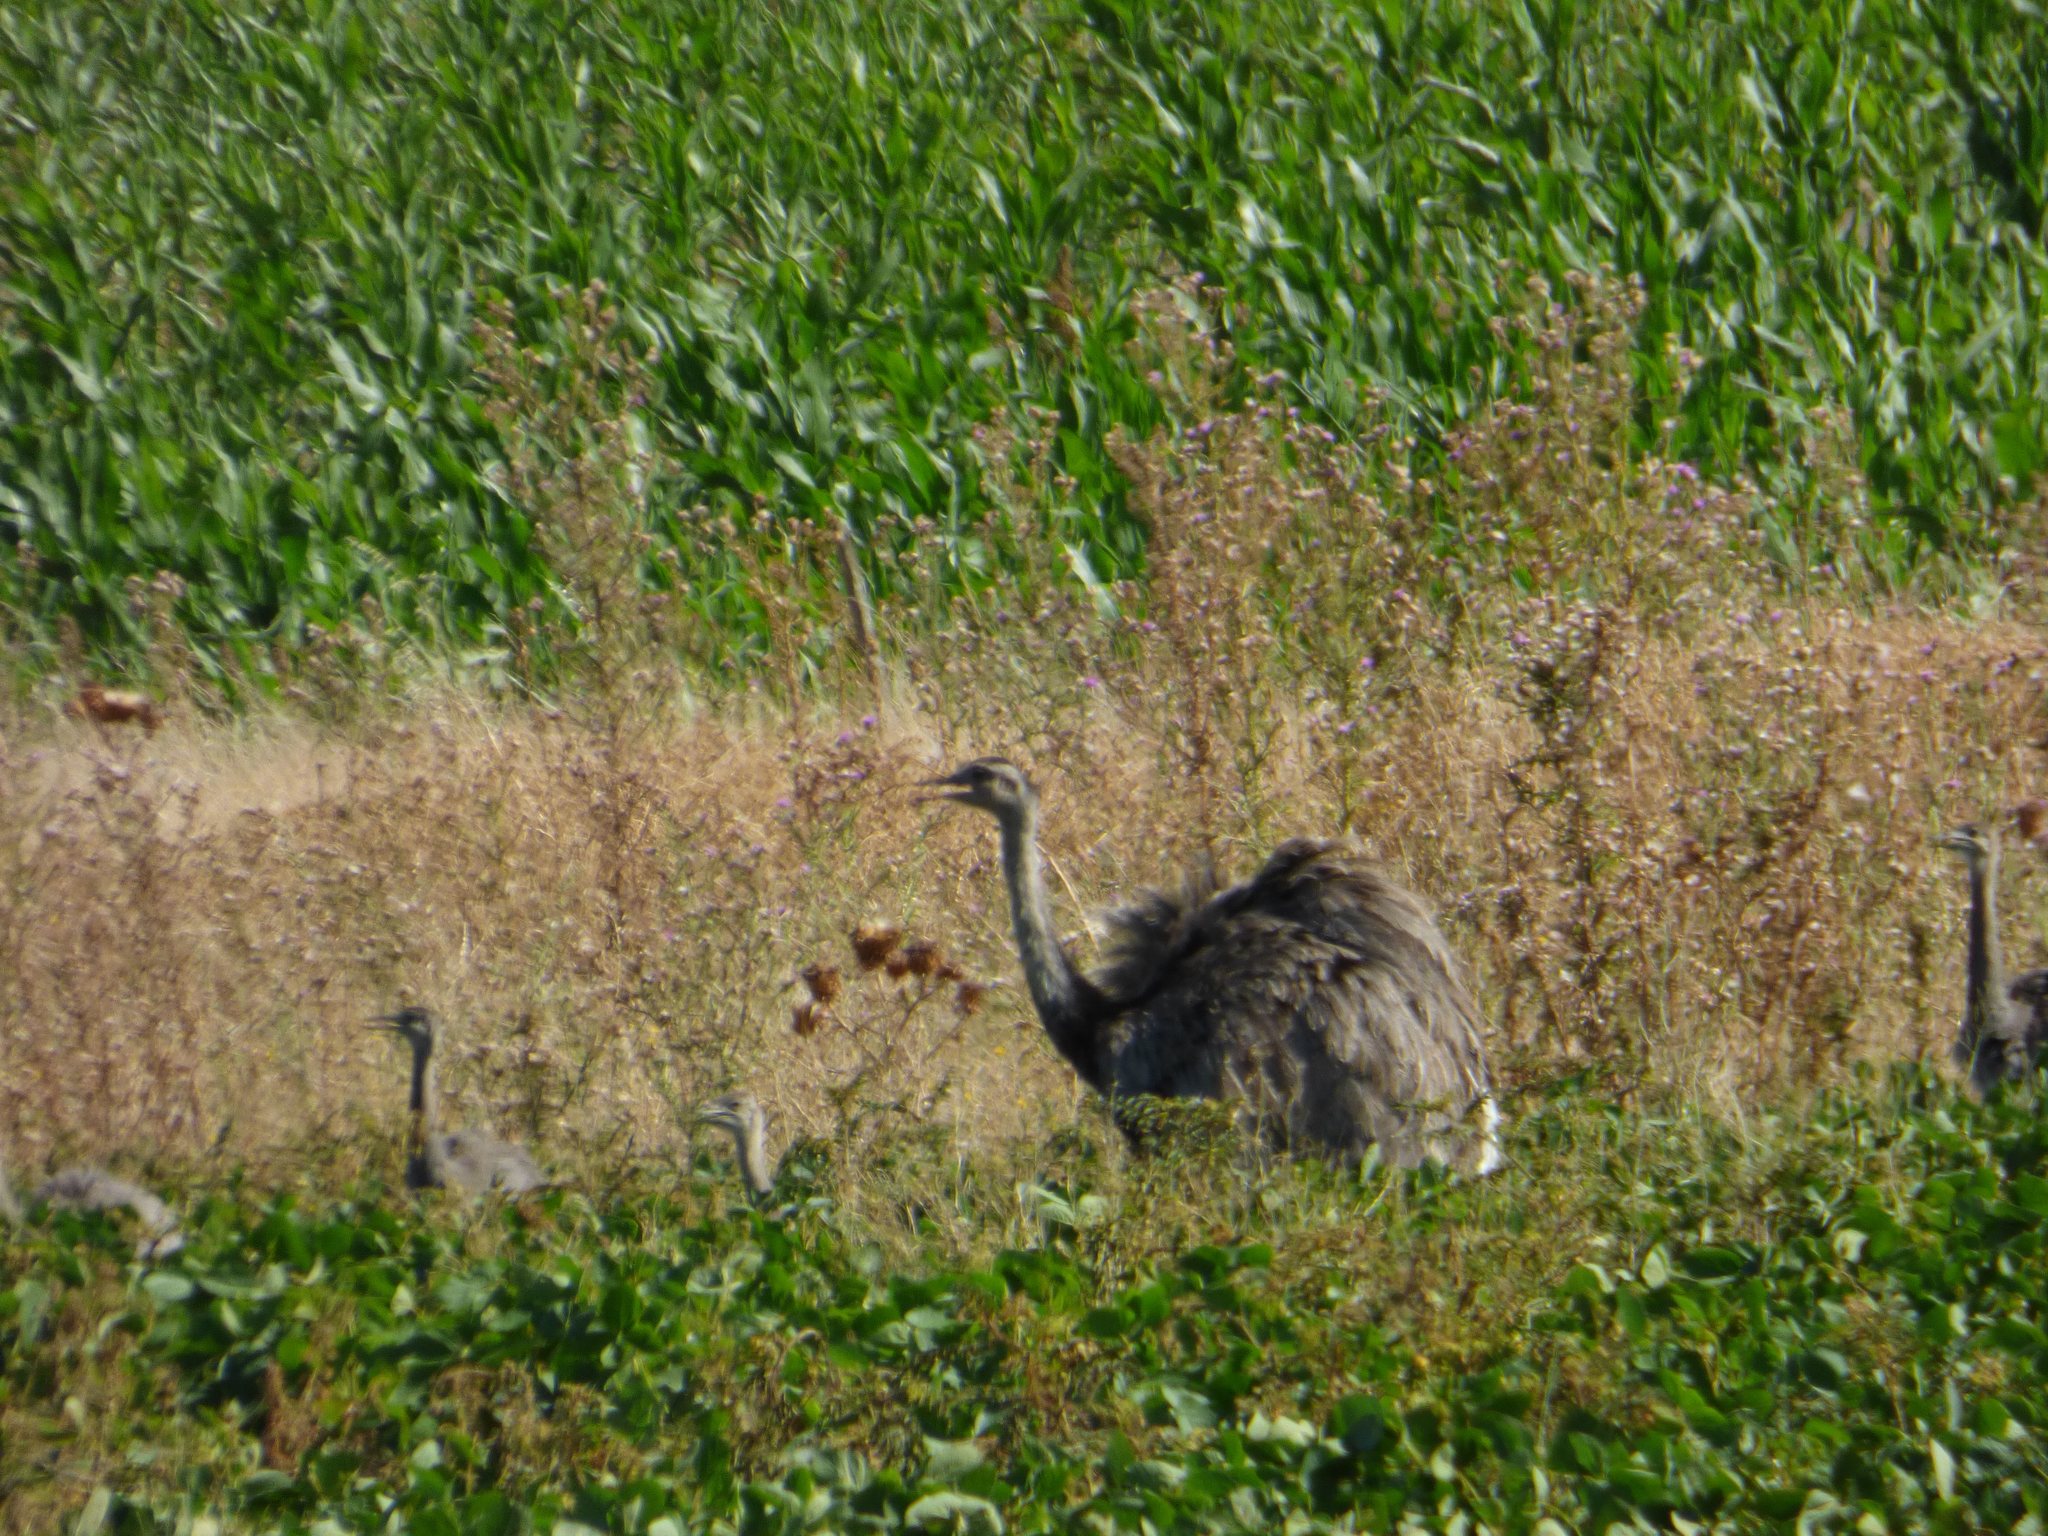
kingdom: Animalia
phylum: Chordata
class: Aves
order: Rheiformes
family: Rheidae
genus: Rhea
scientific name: Rhea americana
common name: Greater rhea
